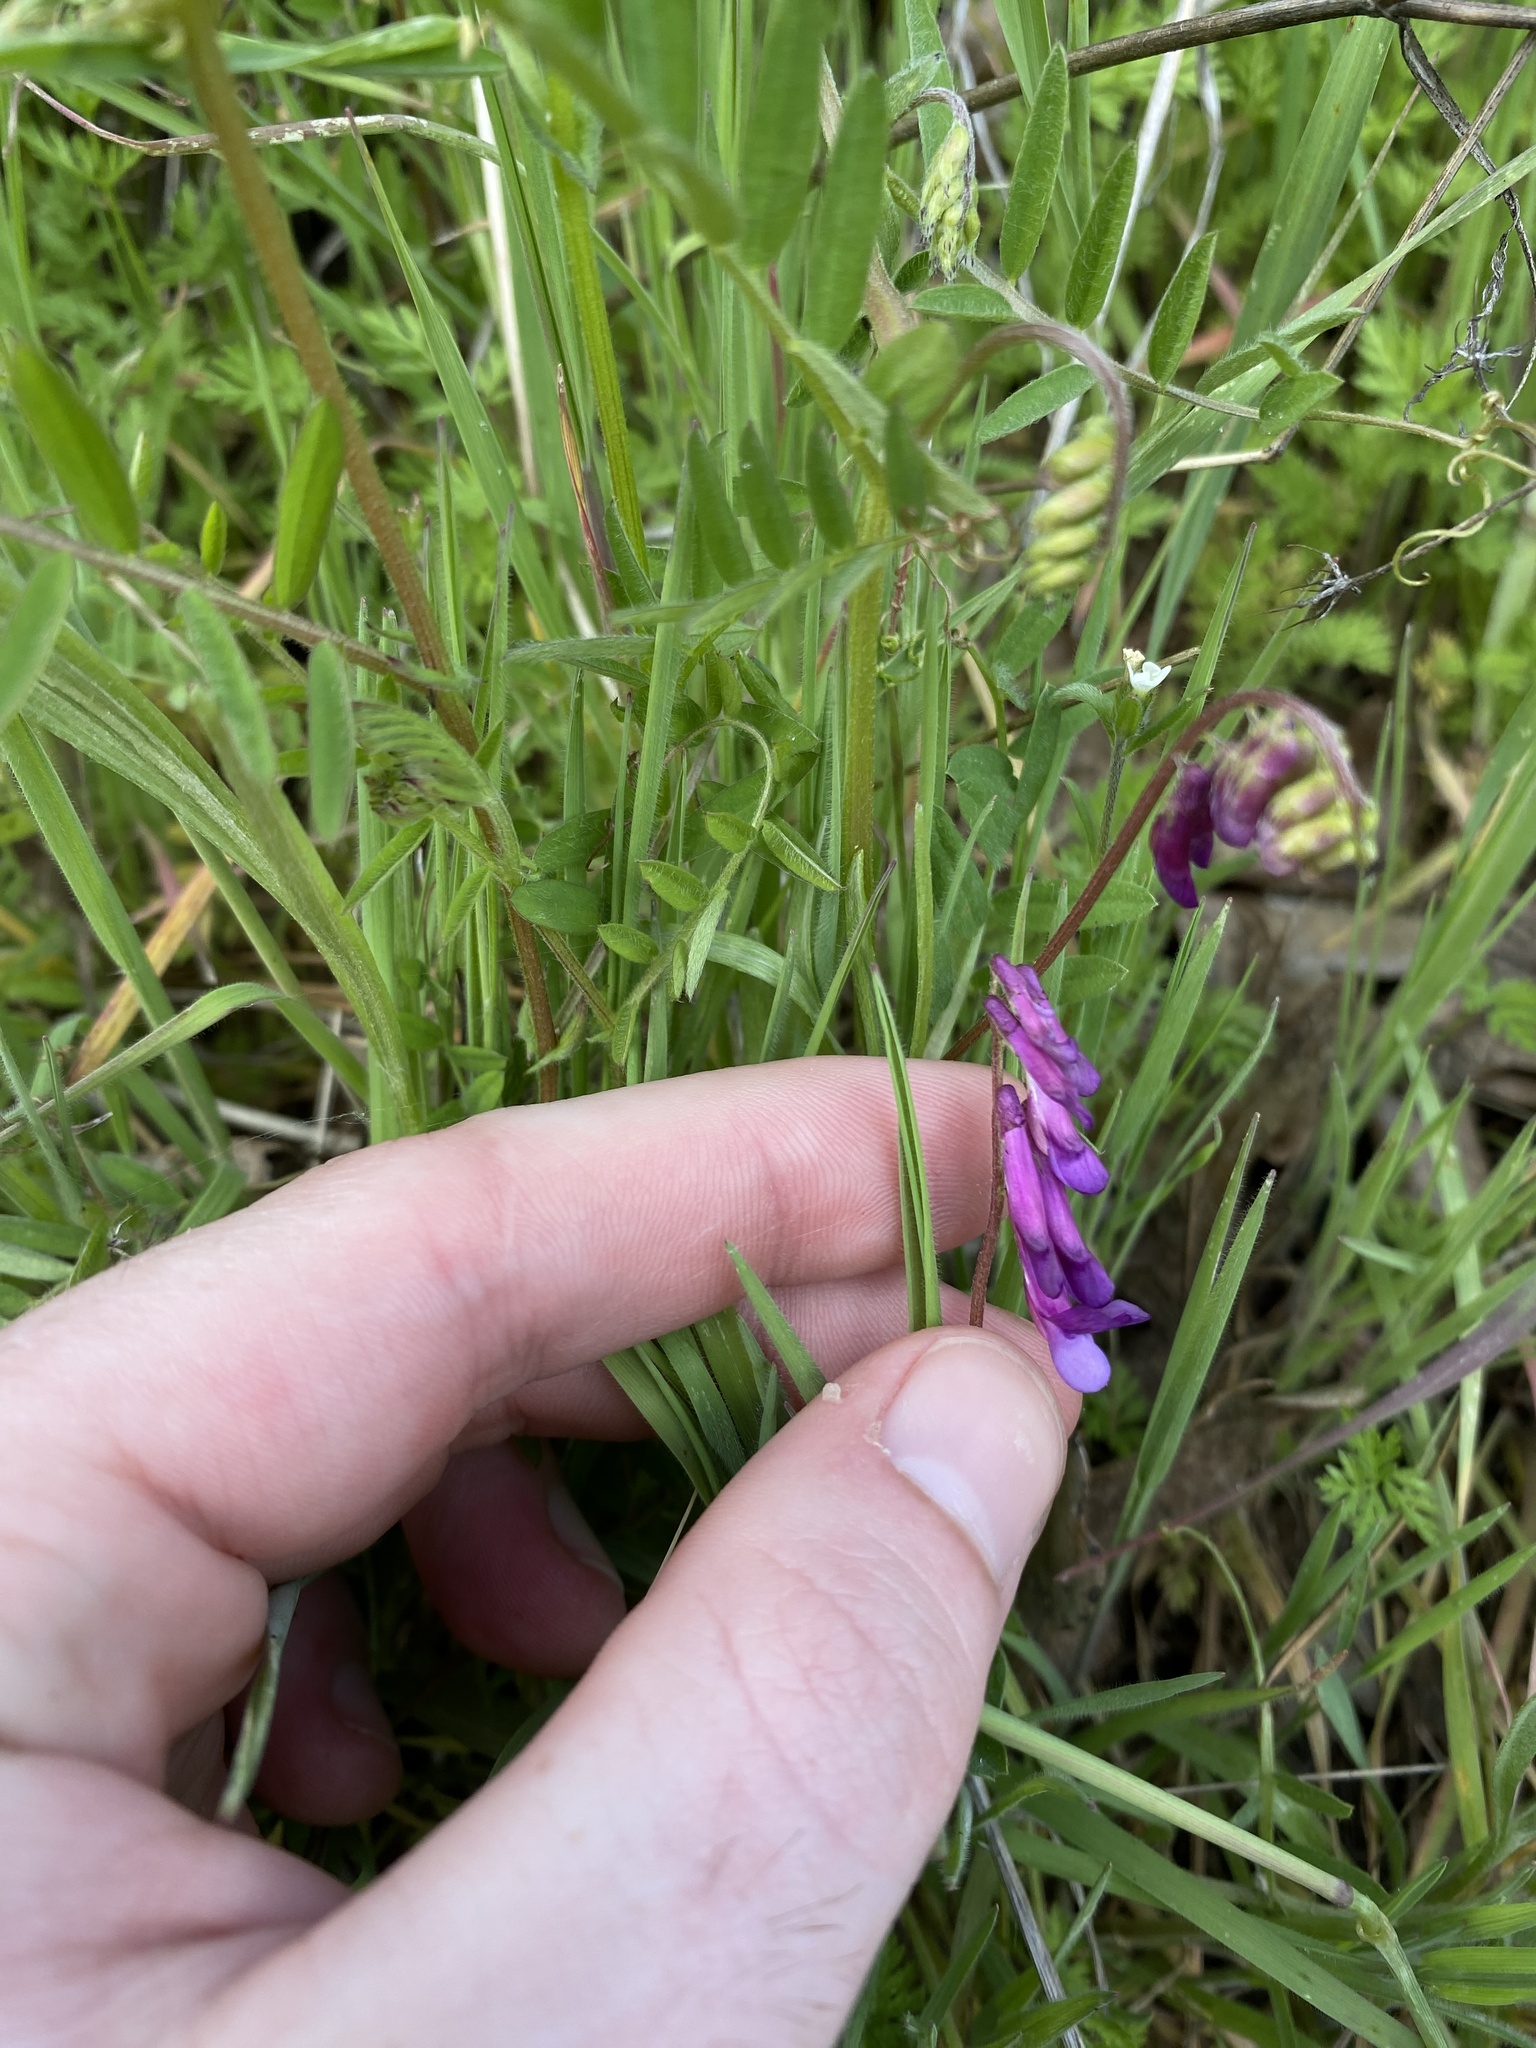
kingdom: Plantae
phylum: Tracheophyta
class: Magnoliopsida
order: Fabales
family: Fabaceae
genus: Vicia
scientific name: Vicia villosa
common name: Fodder vetch
